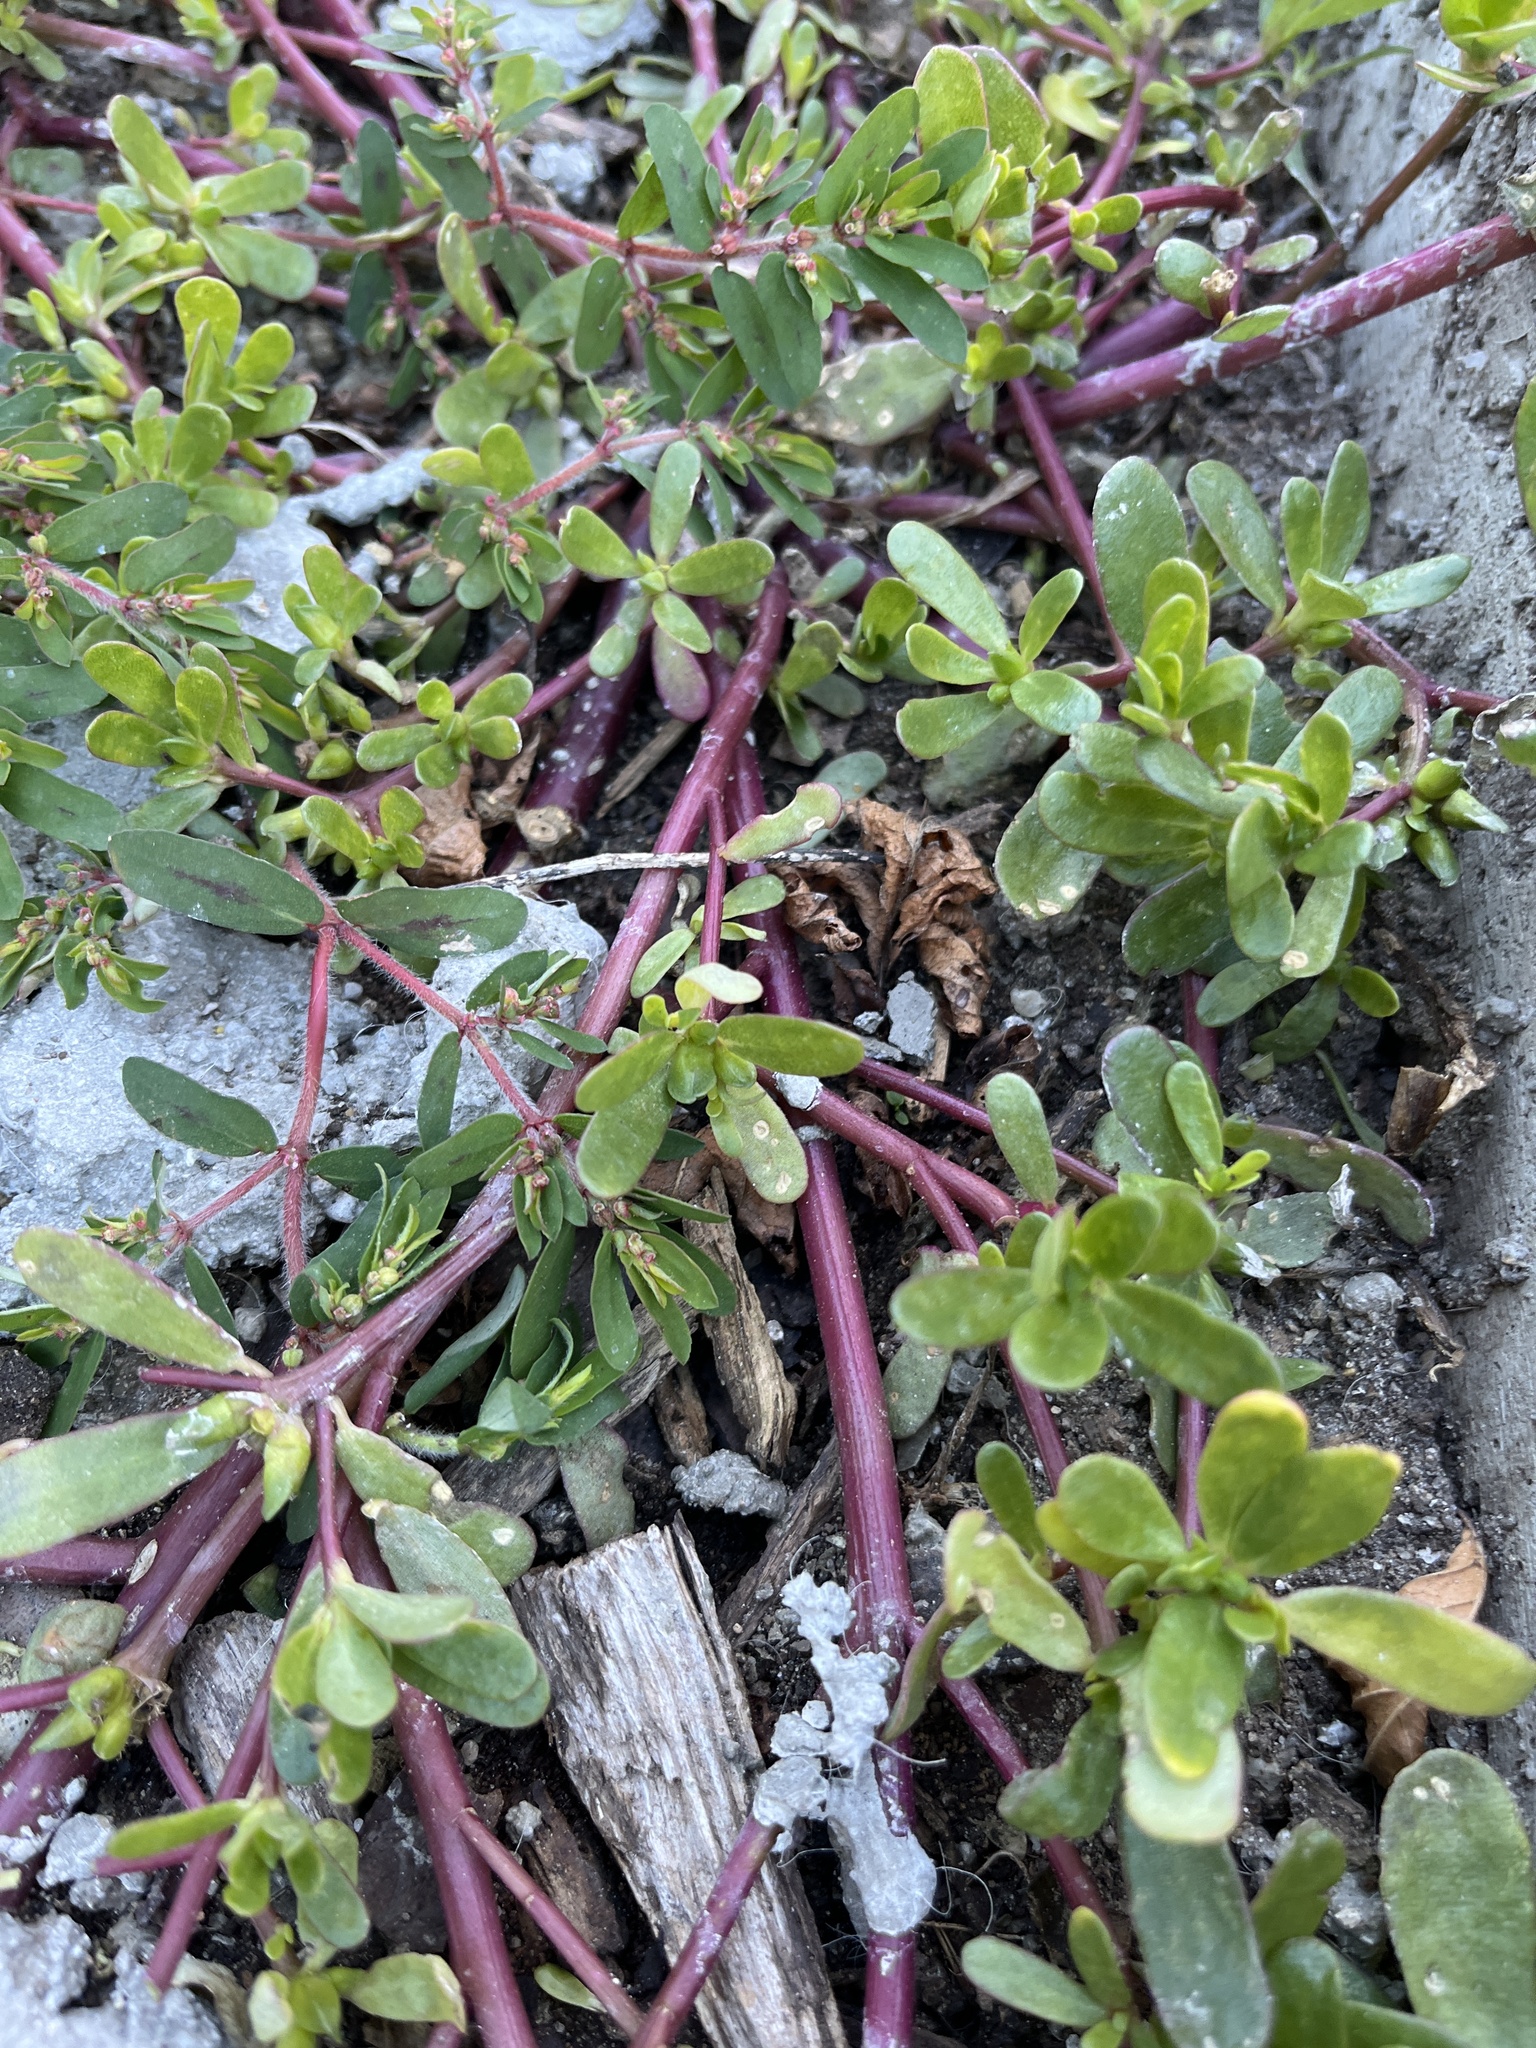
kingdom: Plantae
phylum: Tracheophyta
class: Magnoliopsida
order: Caryophyllales
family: Portulacaceae
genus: Portulaca
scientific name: Portulaca oleracea
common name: Common purslane
